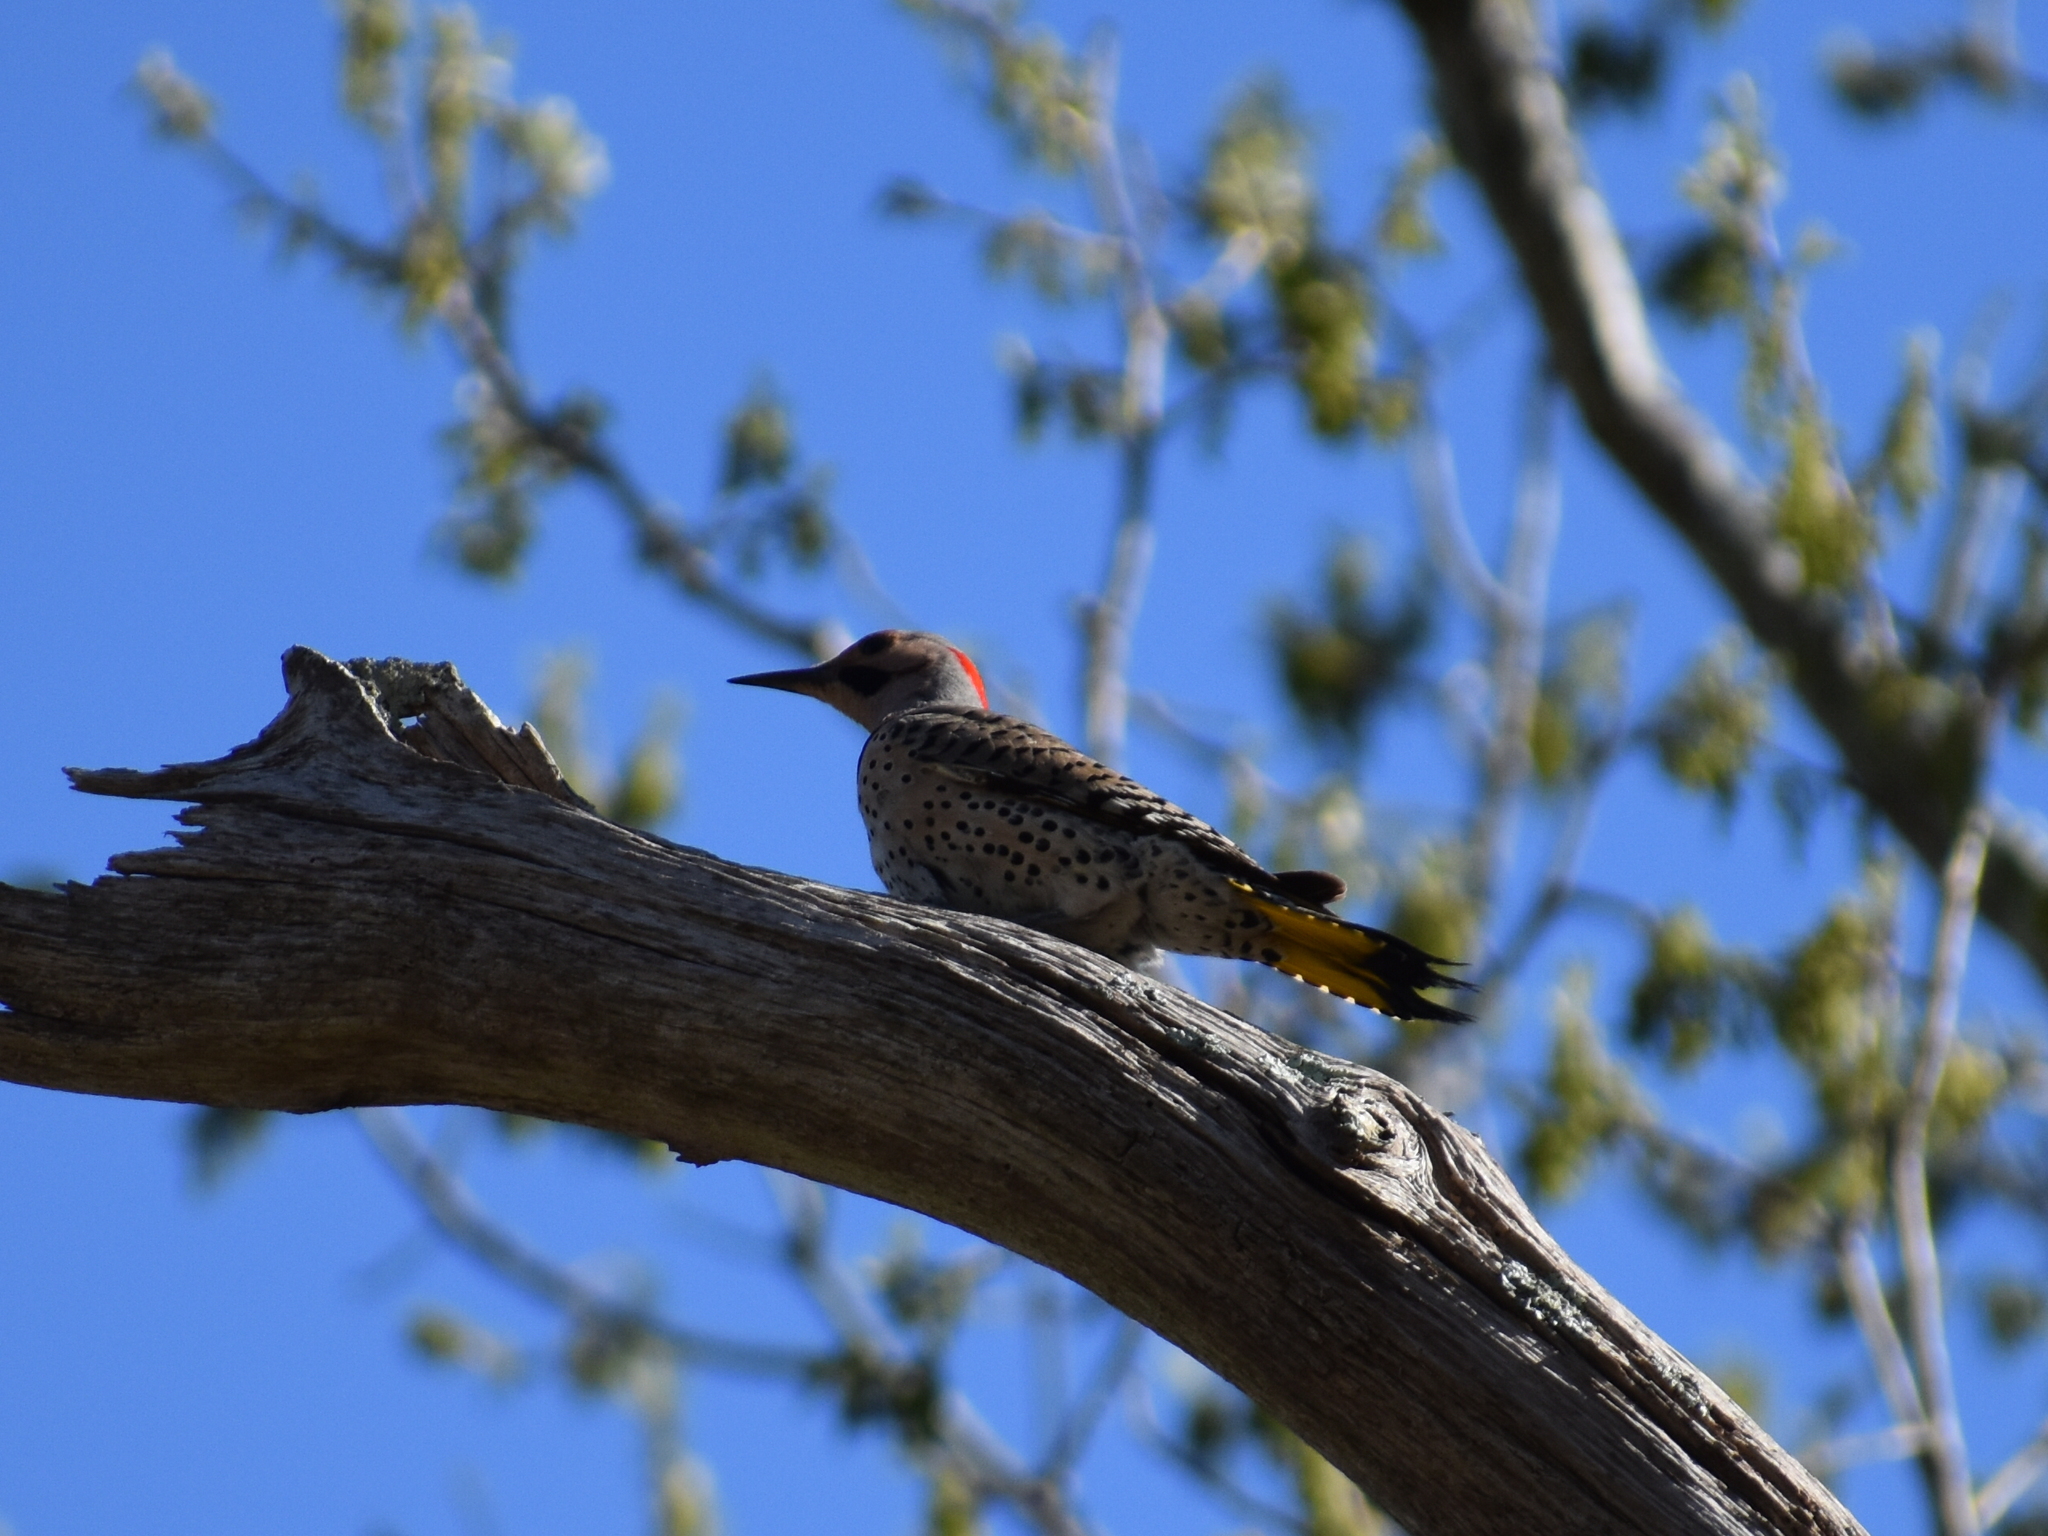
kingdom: Animalia
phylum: Chordata
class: Aves
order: Piciformes
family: Picidae
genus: Colaptes
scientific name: Colaptes auratus
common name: Northern flicker
